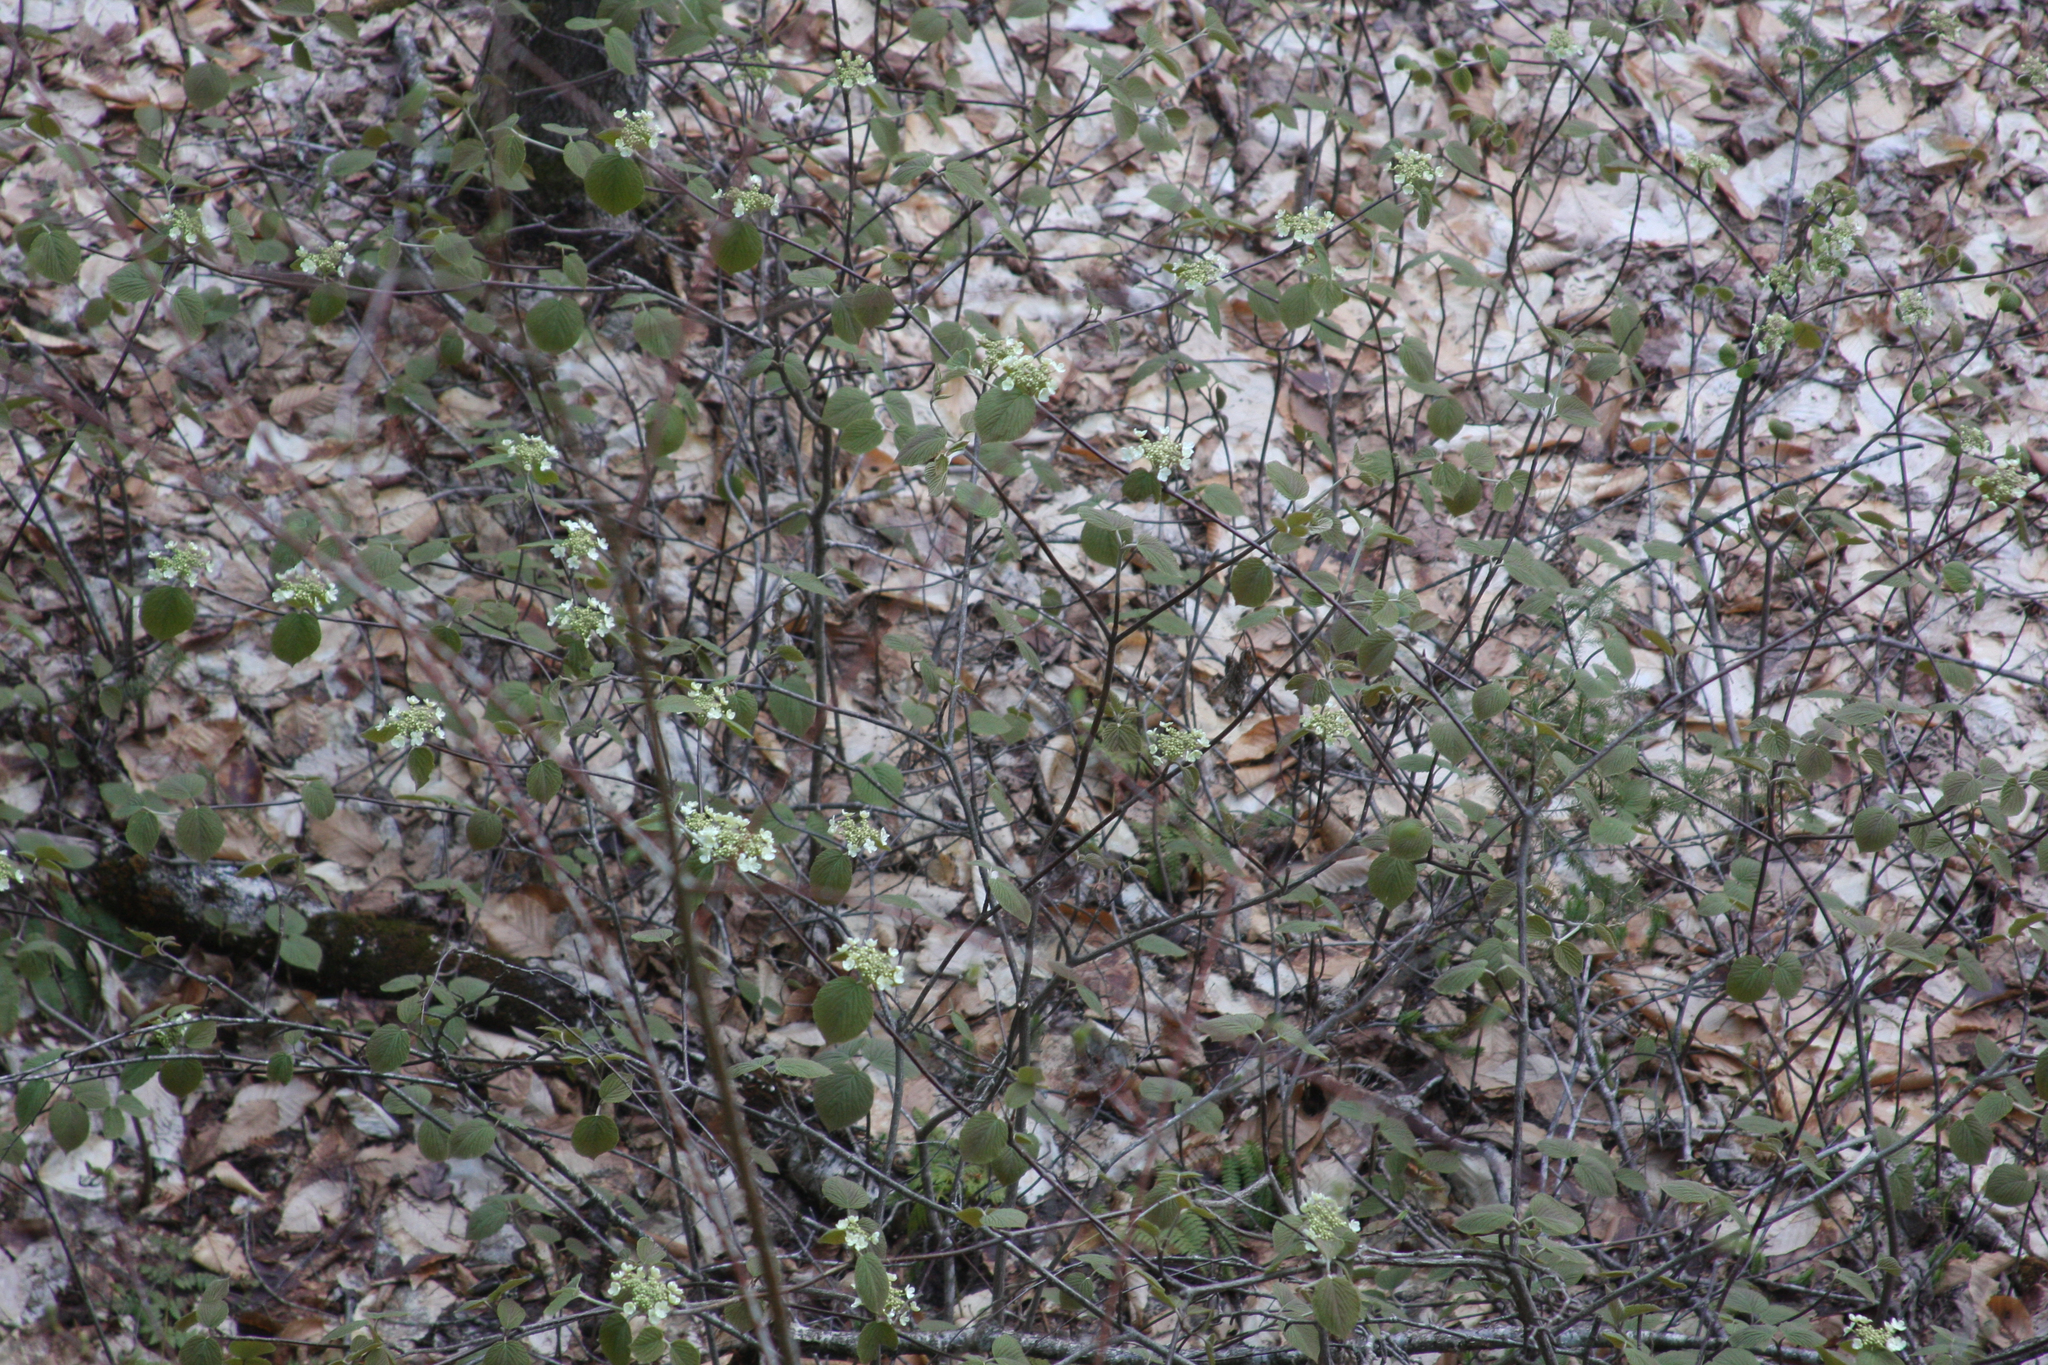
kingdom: Plantae
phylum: Tracheophyta
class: Magnoliopsida
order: Dipsacales
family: Viburnaceae
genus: Viburnum
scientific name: Viburnum lantanoides
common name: Hobblebush
